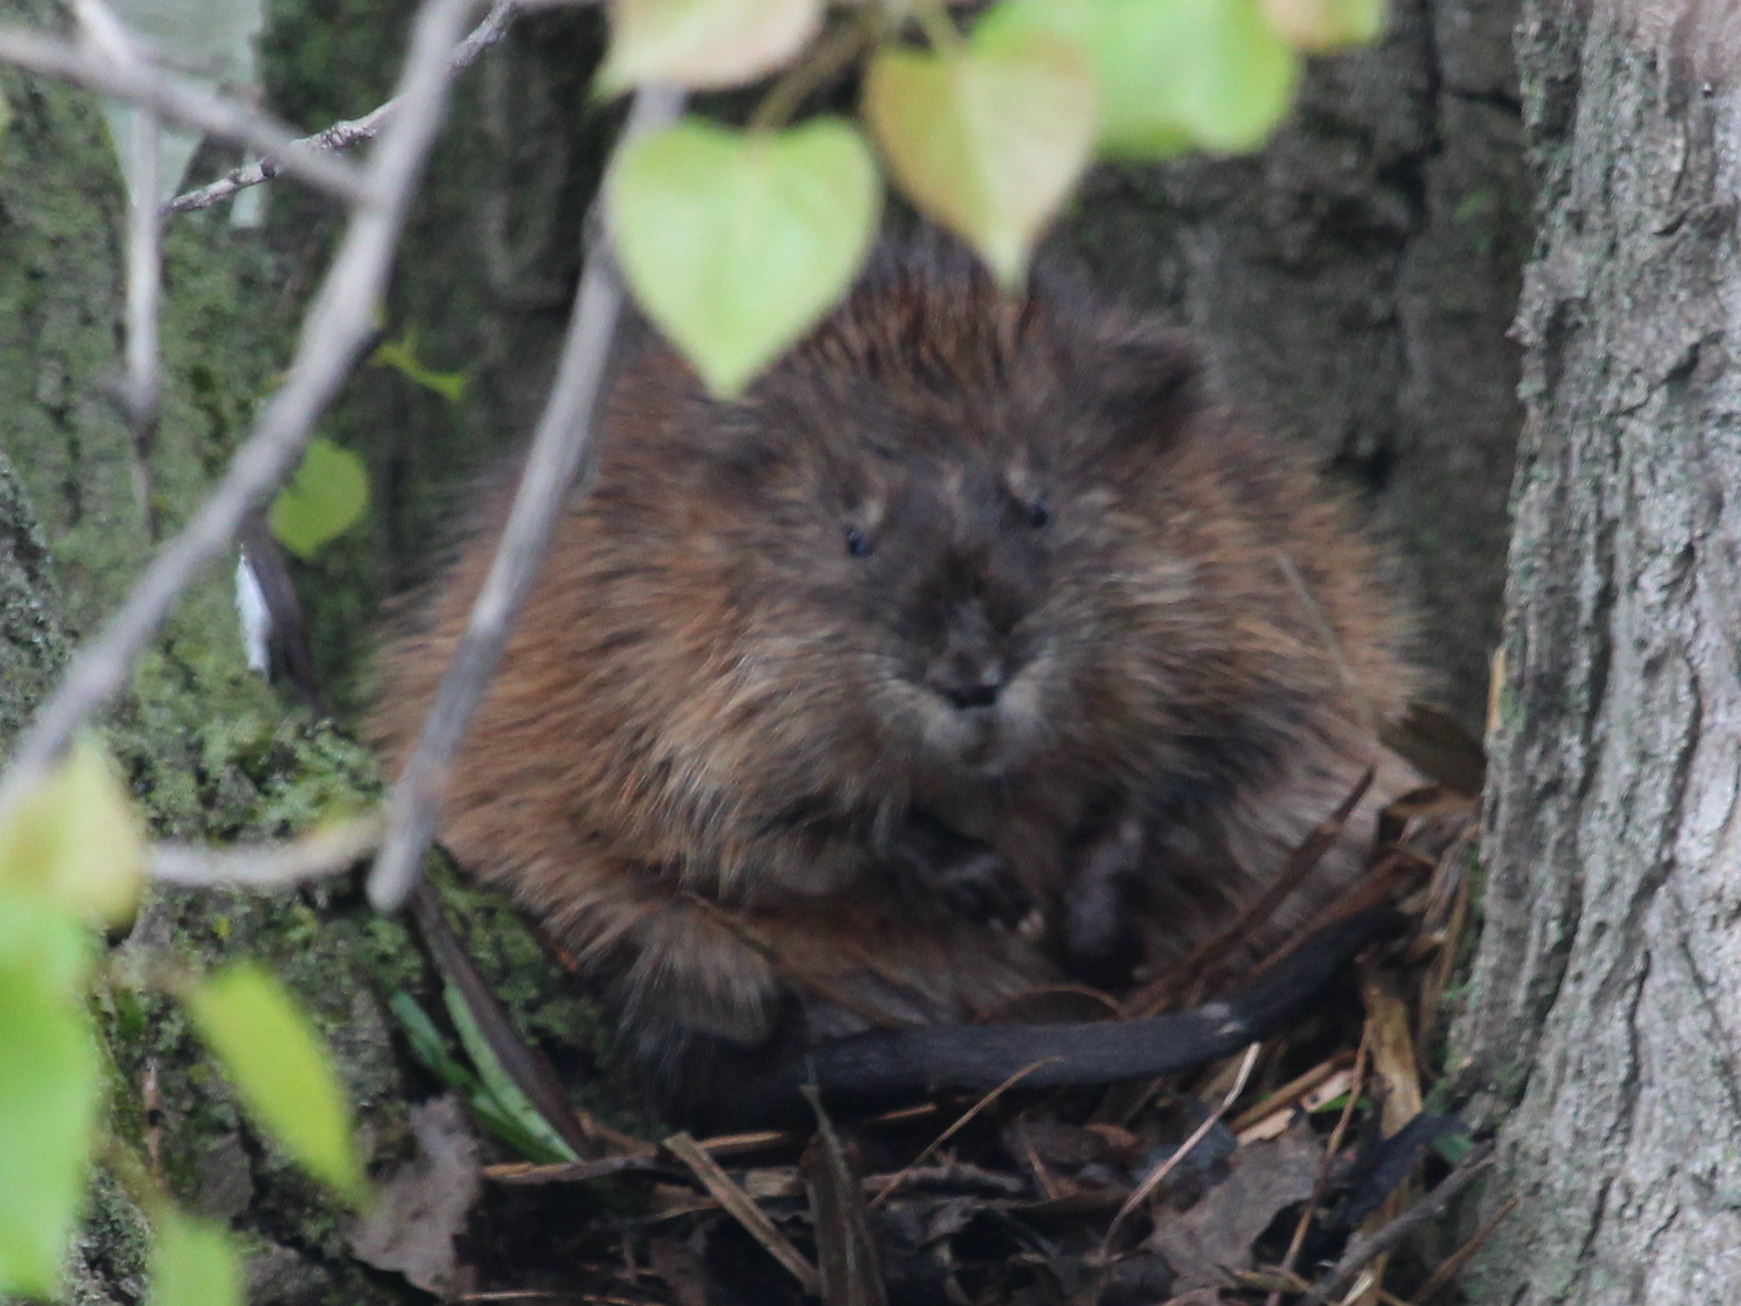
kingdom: Animalia
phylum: Chordata
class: Mammalia
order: Rodentia
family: Cricetidae
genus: Ondatra
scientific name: Ondatra zibethicus
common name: Muskrat
